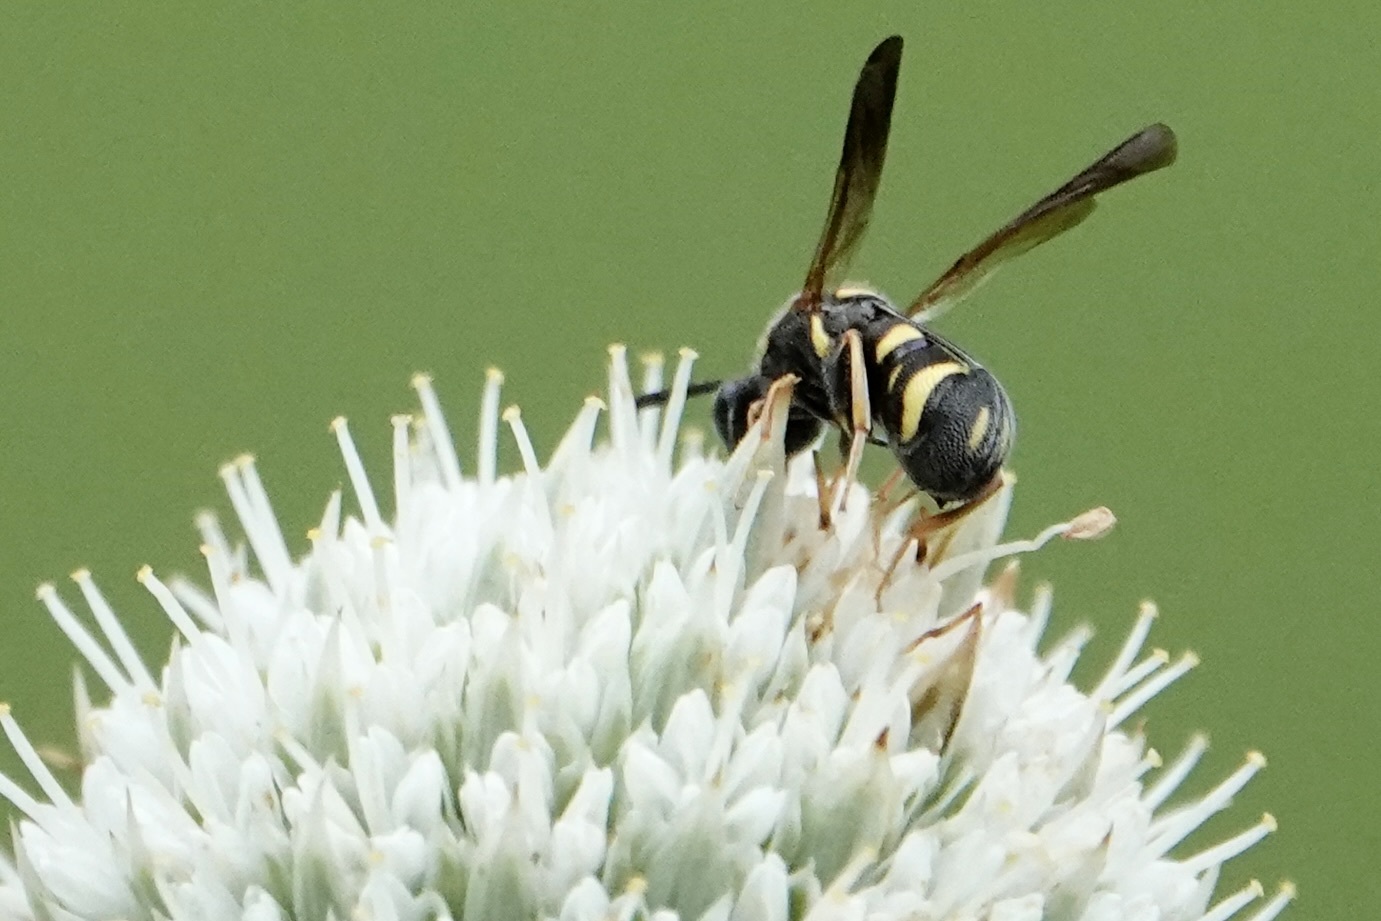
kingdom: Animalia
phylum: Arthropoda
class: Insecta
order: Hymenoptera
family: Leucospidae
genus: Leucospis
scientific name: Leucospis affinis
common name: Wasp
